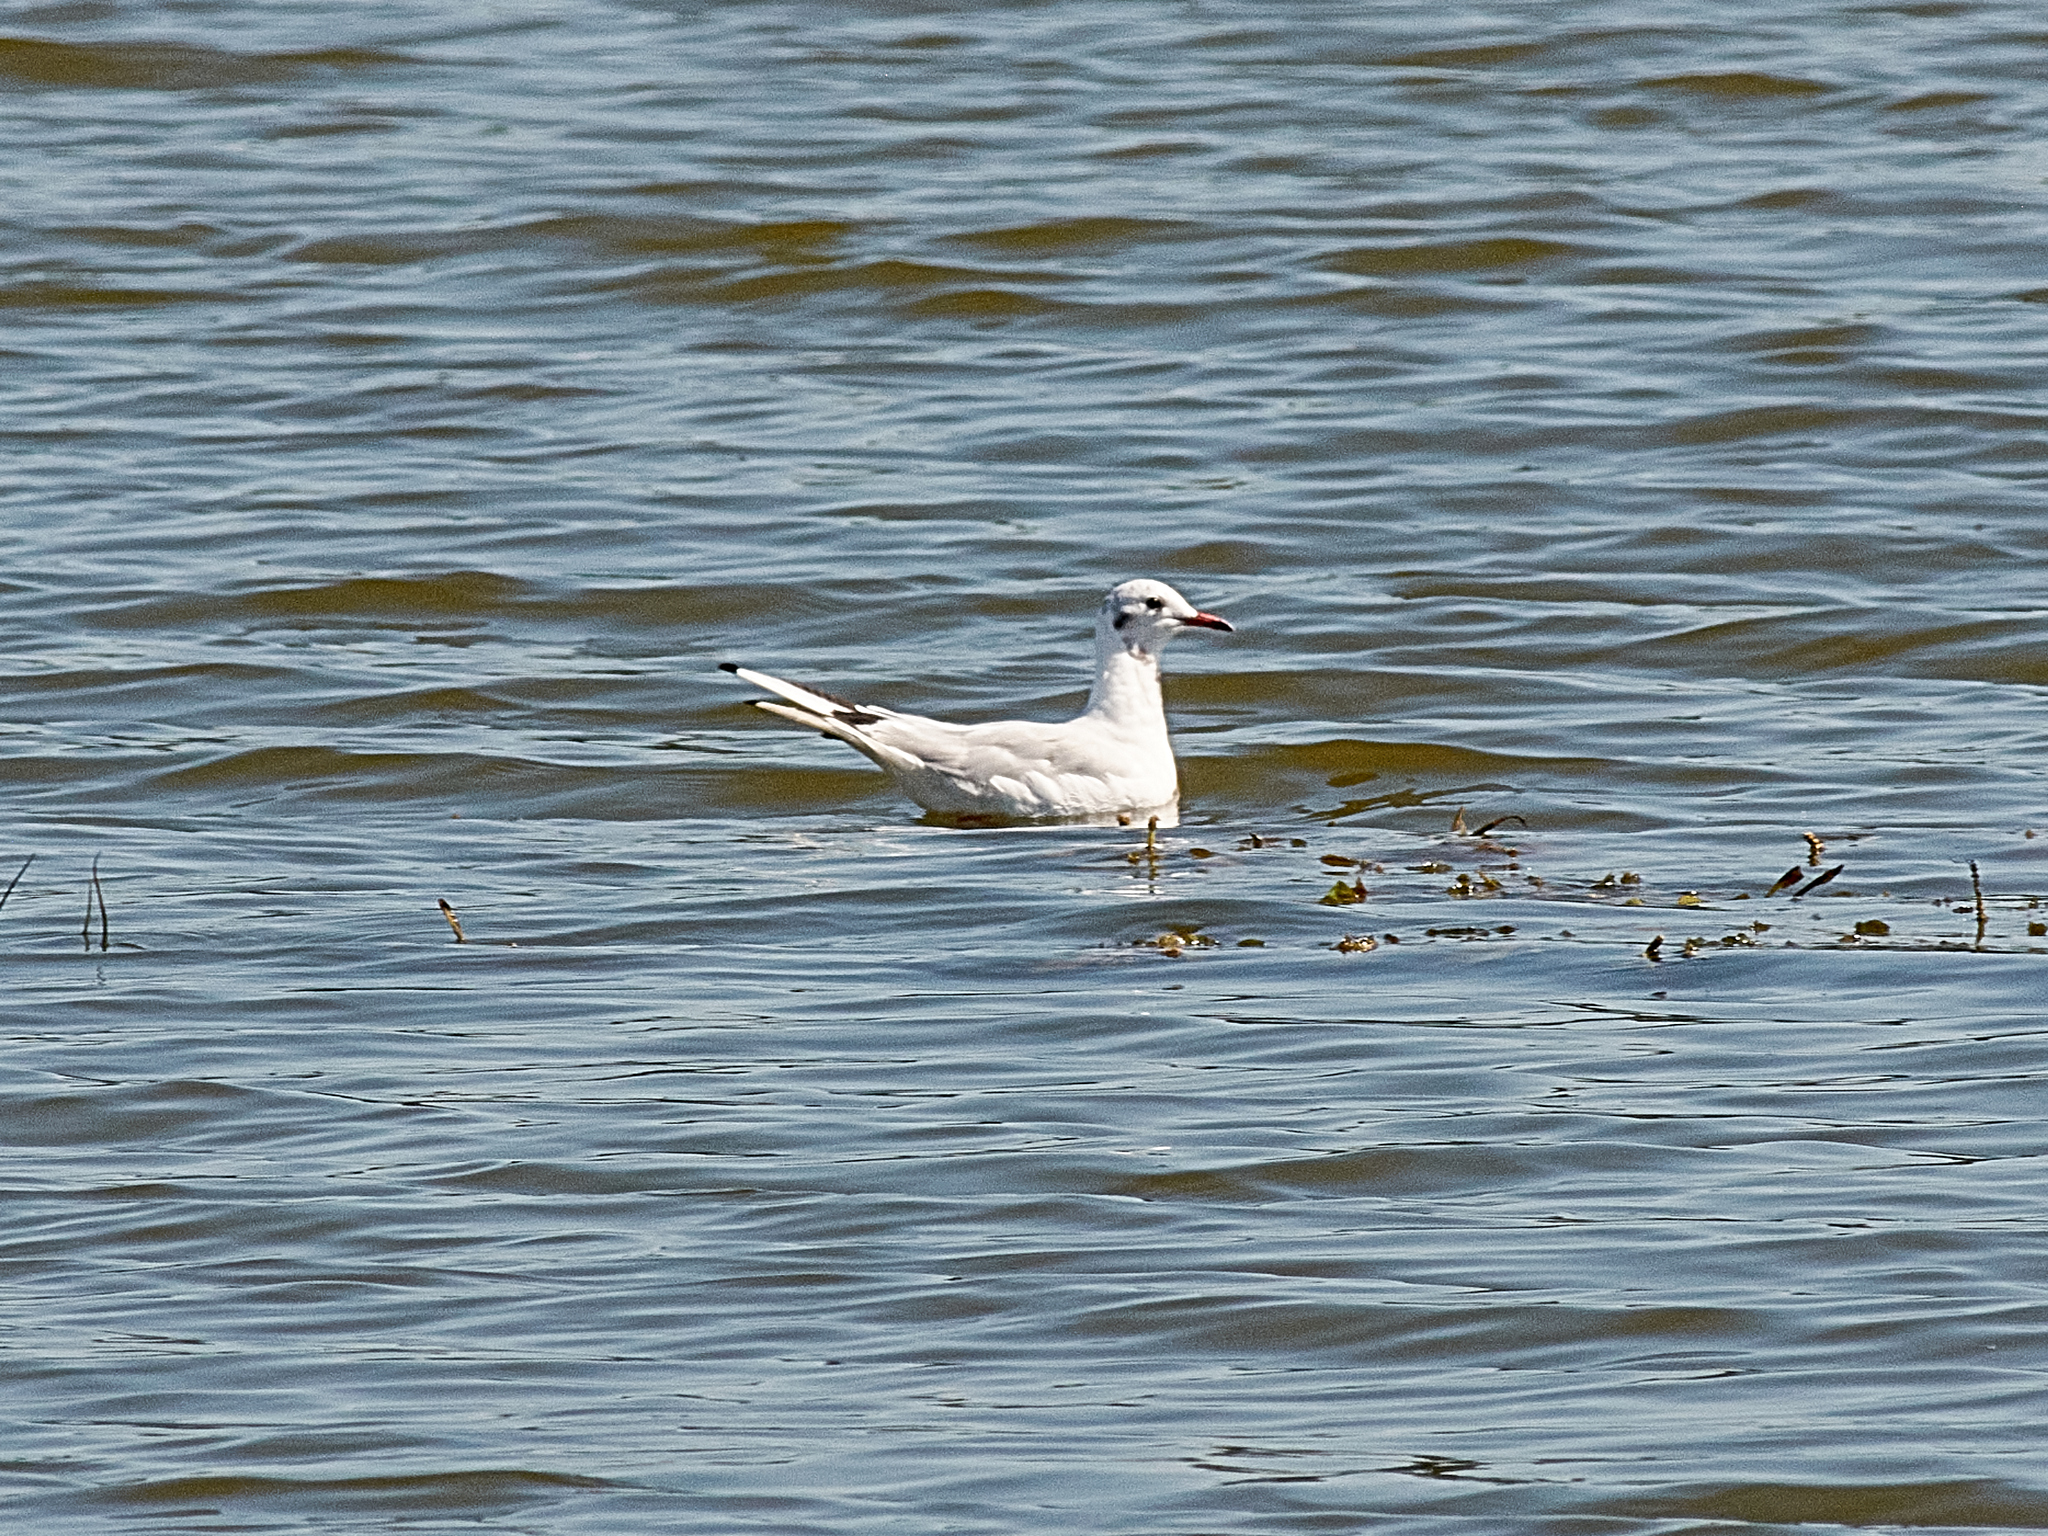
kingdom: Animalia
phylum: Chordata
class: Aves
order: Charadriiformes
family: Laridae
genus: Chroicocephalus
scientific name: Chroicocephalus ridibundus
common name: Black-headed gull
